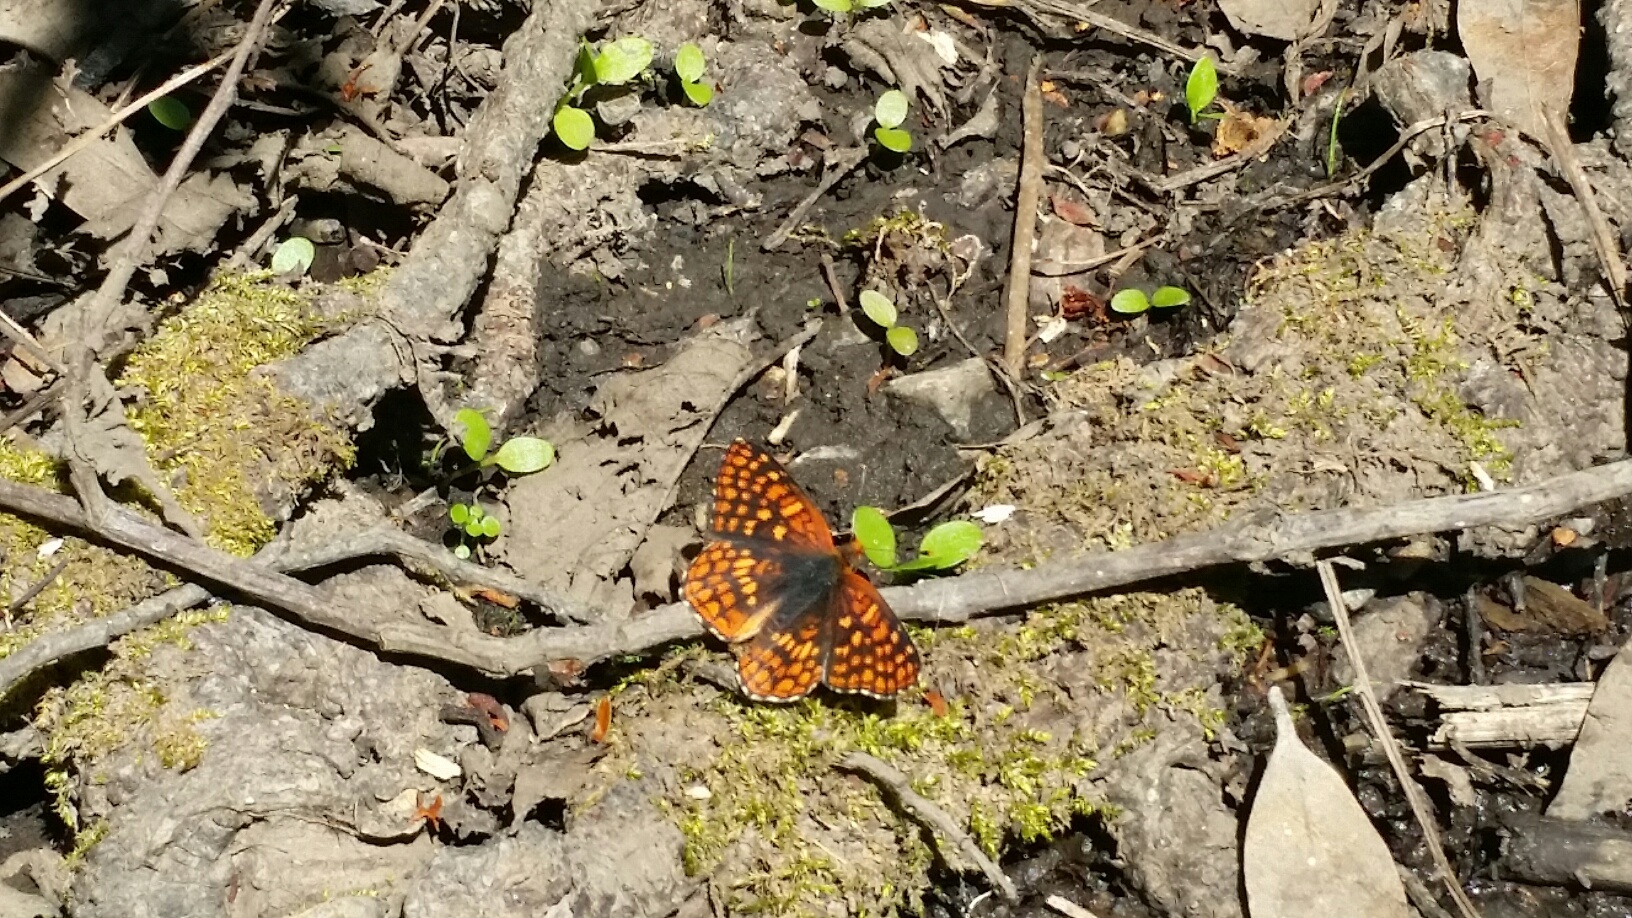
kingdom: Animalia
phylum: Arthropoda
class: Insecta
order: Lepidoptera
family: Nymphalidae
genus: Chlosyne
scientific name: Chlosyne palla
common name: Northern checkerspot
